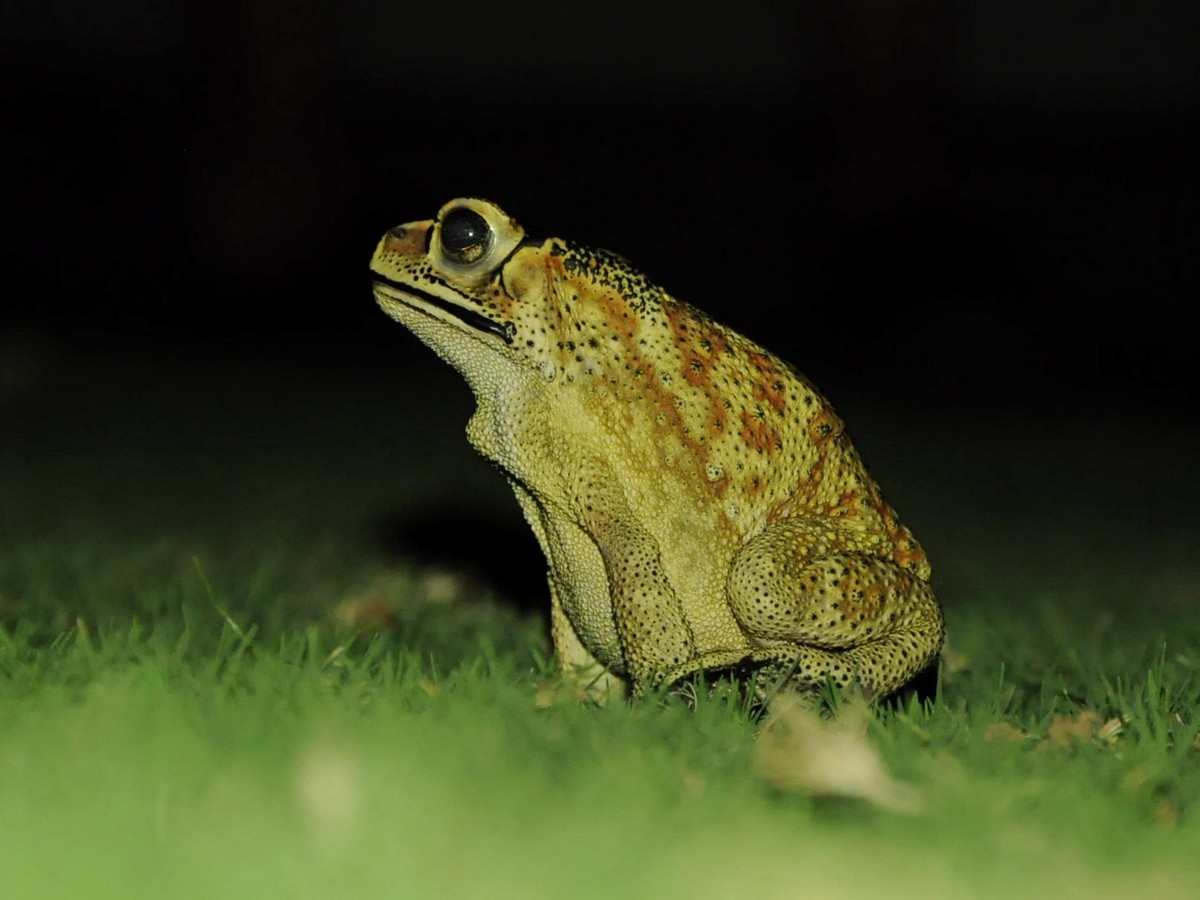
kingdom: Animalia
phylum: Chordata
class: Amphibia
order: Anura
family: Bufonidae
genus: Duttaphrynus
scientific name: Duttaphrynus melanostictus
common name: Common sunda toad
